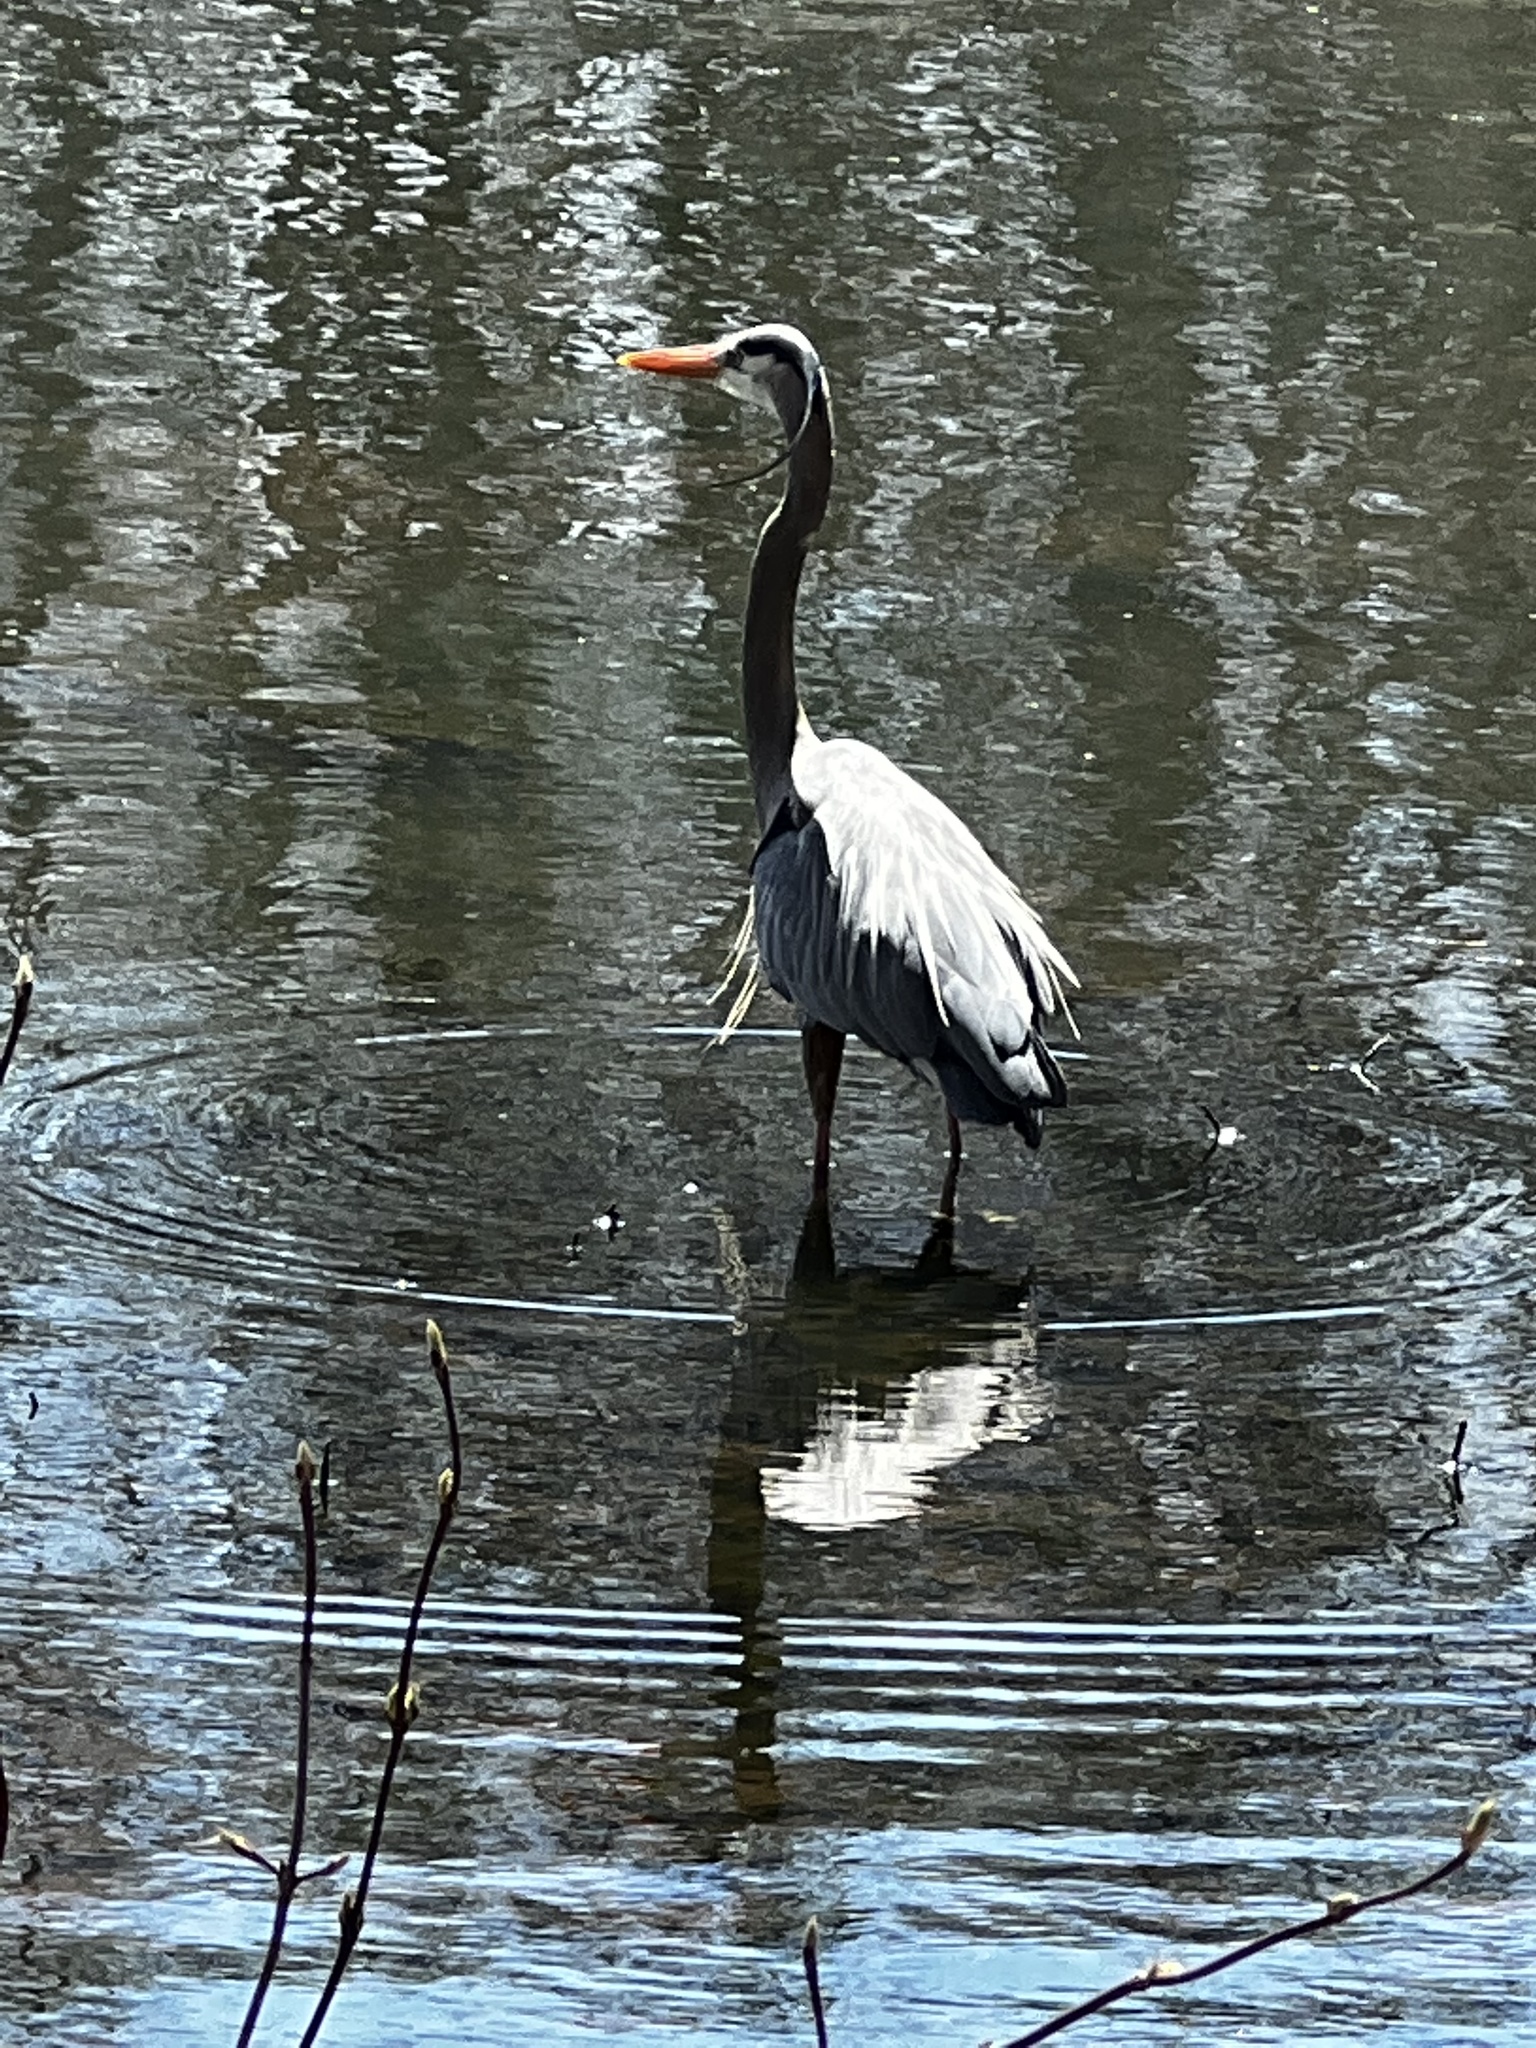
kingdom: Animalia
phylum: Chordata
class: Aves
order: Pelecaniformes
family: Ardeidae
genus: Ardea
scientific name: Ardea herodias
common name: Great blue heron
